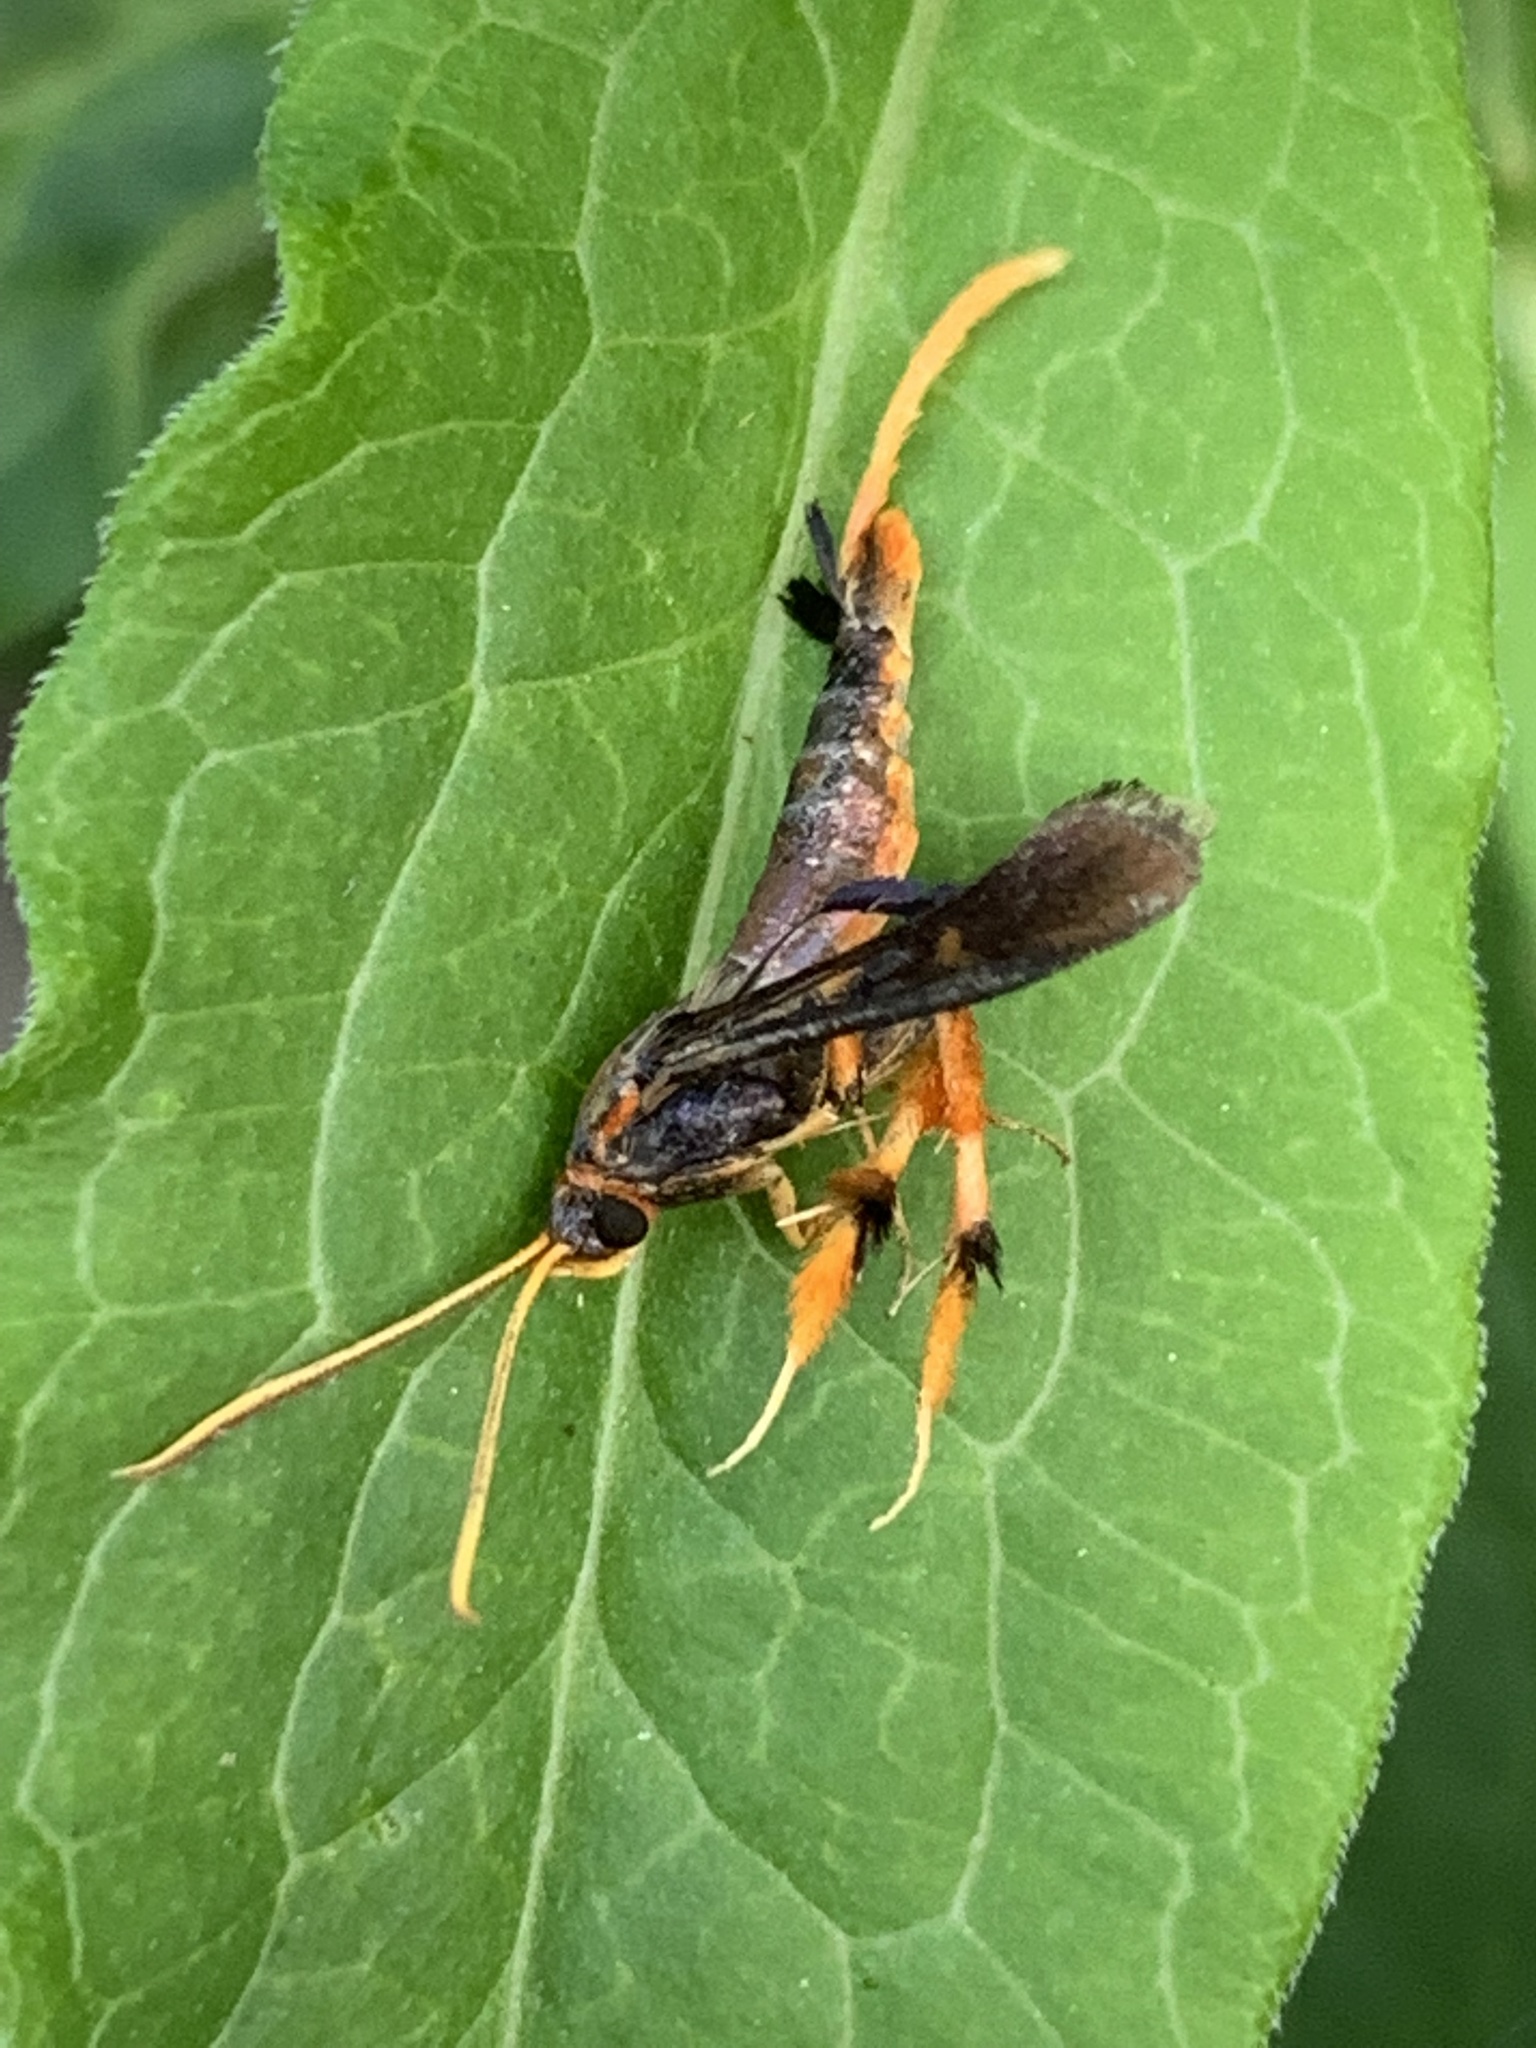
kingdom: Animalia
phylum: Arthropoda
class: Insecta
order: Lepidoptera
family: Sesiidae
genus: Alcathoe
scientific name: Alcathoe caudata
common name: Clematis clearwing moth
